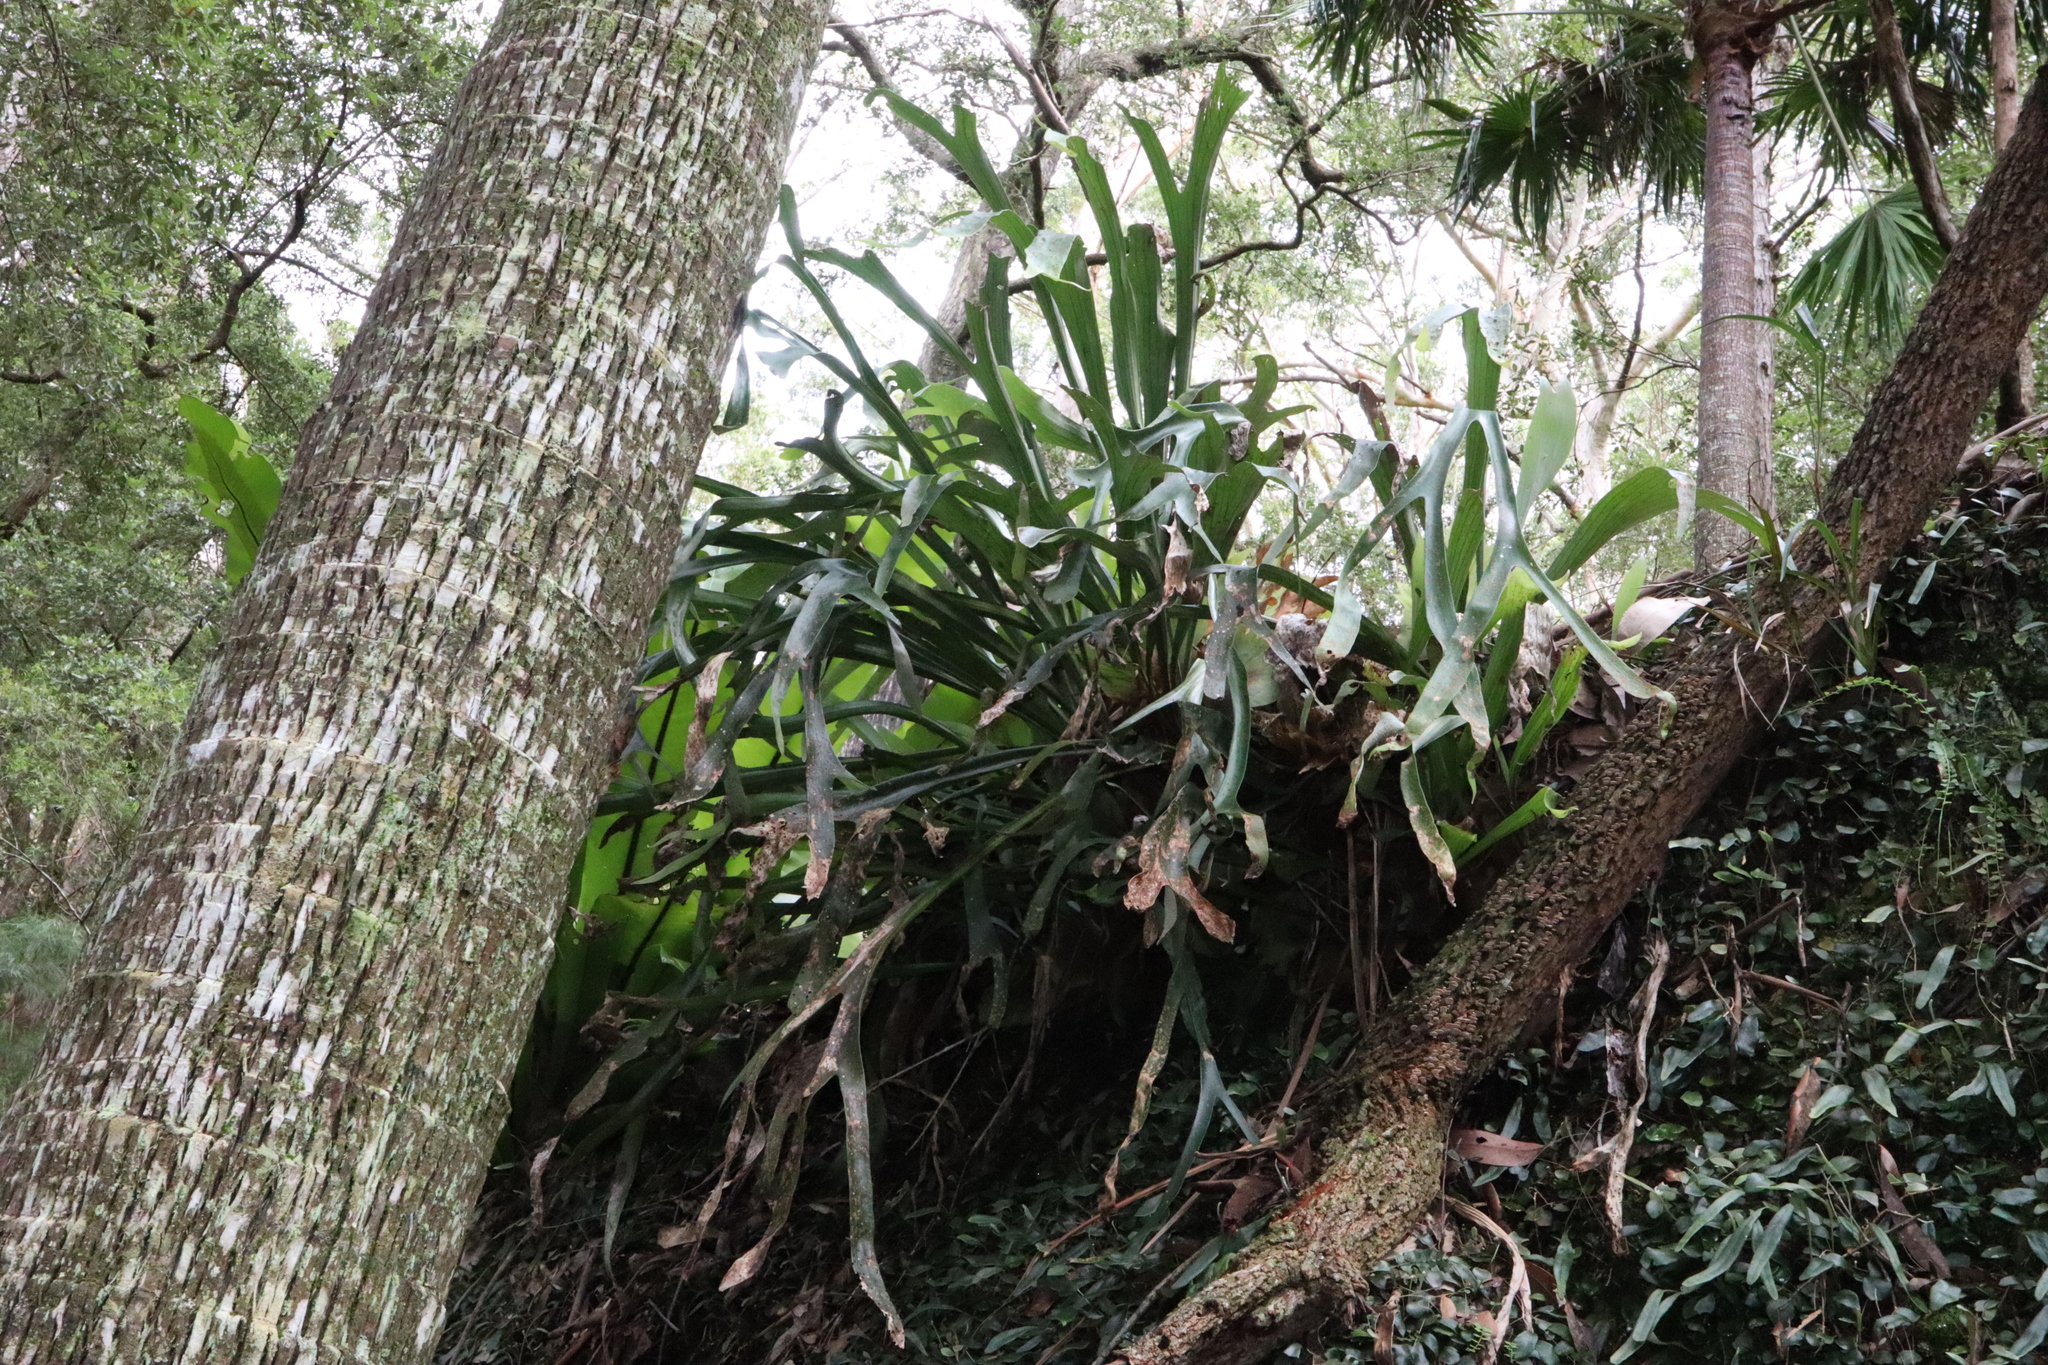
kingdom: Plantae
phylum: Tracheophyta
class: Polypodiopsida
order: Polypodiales
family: Polypodiaceae
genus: Platycerium
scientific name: Platycerium bifurcatum
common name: Elkhorn fern
